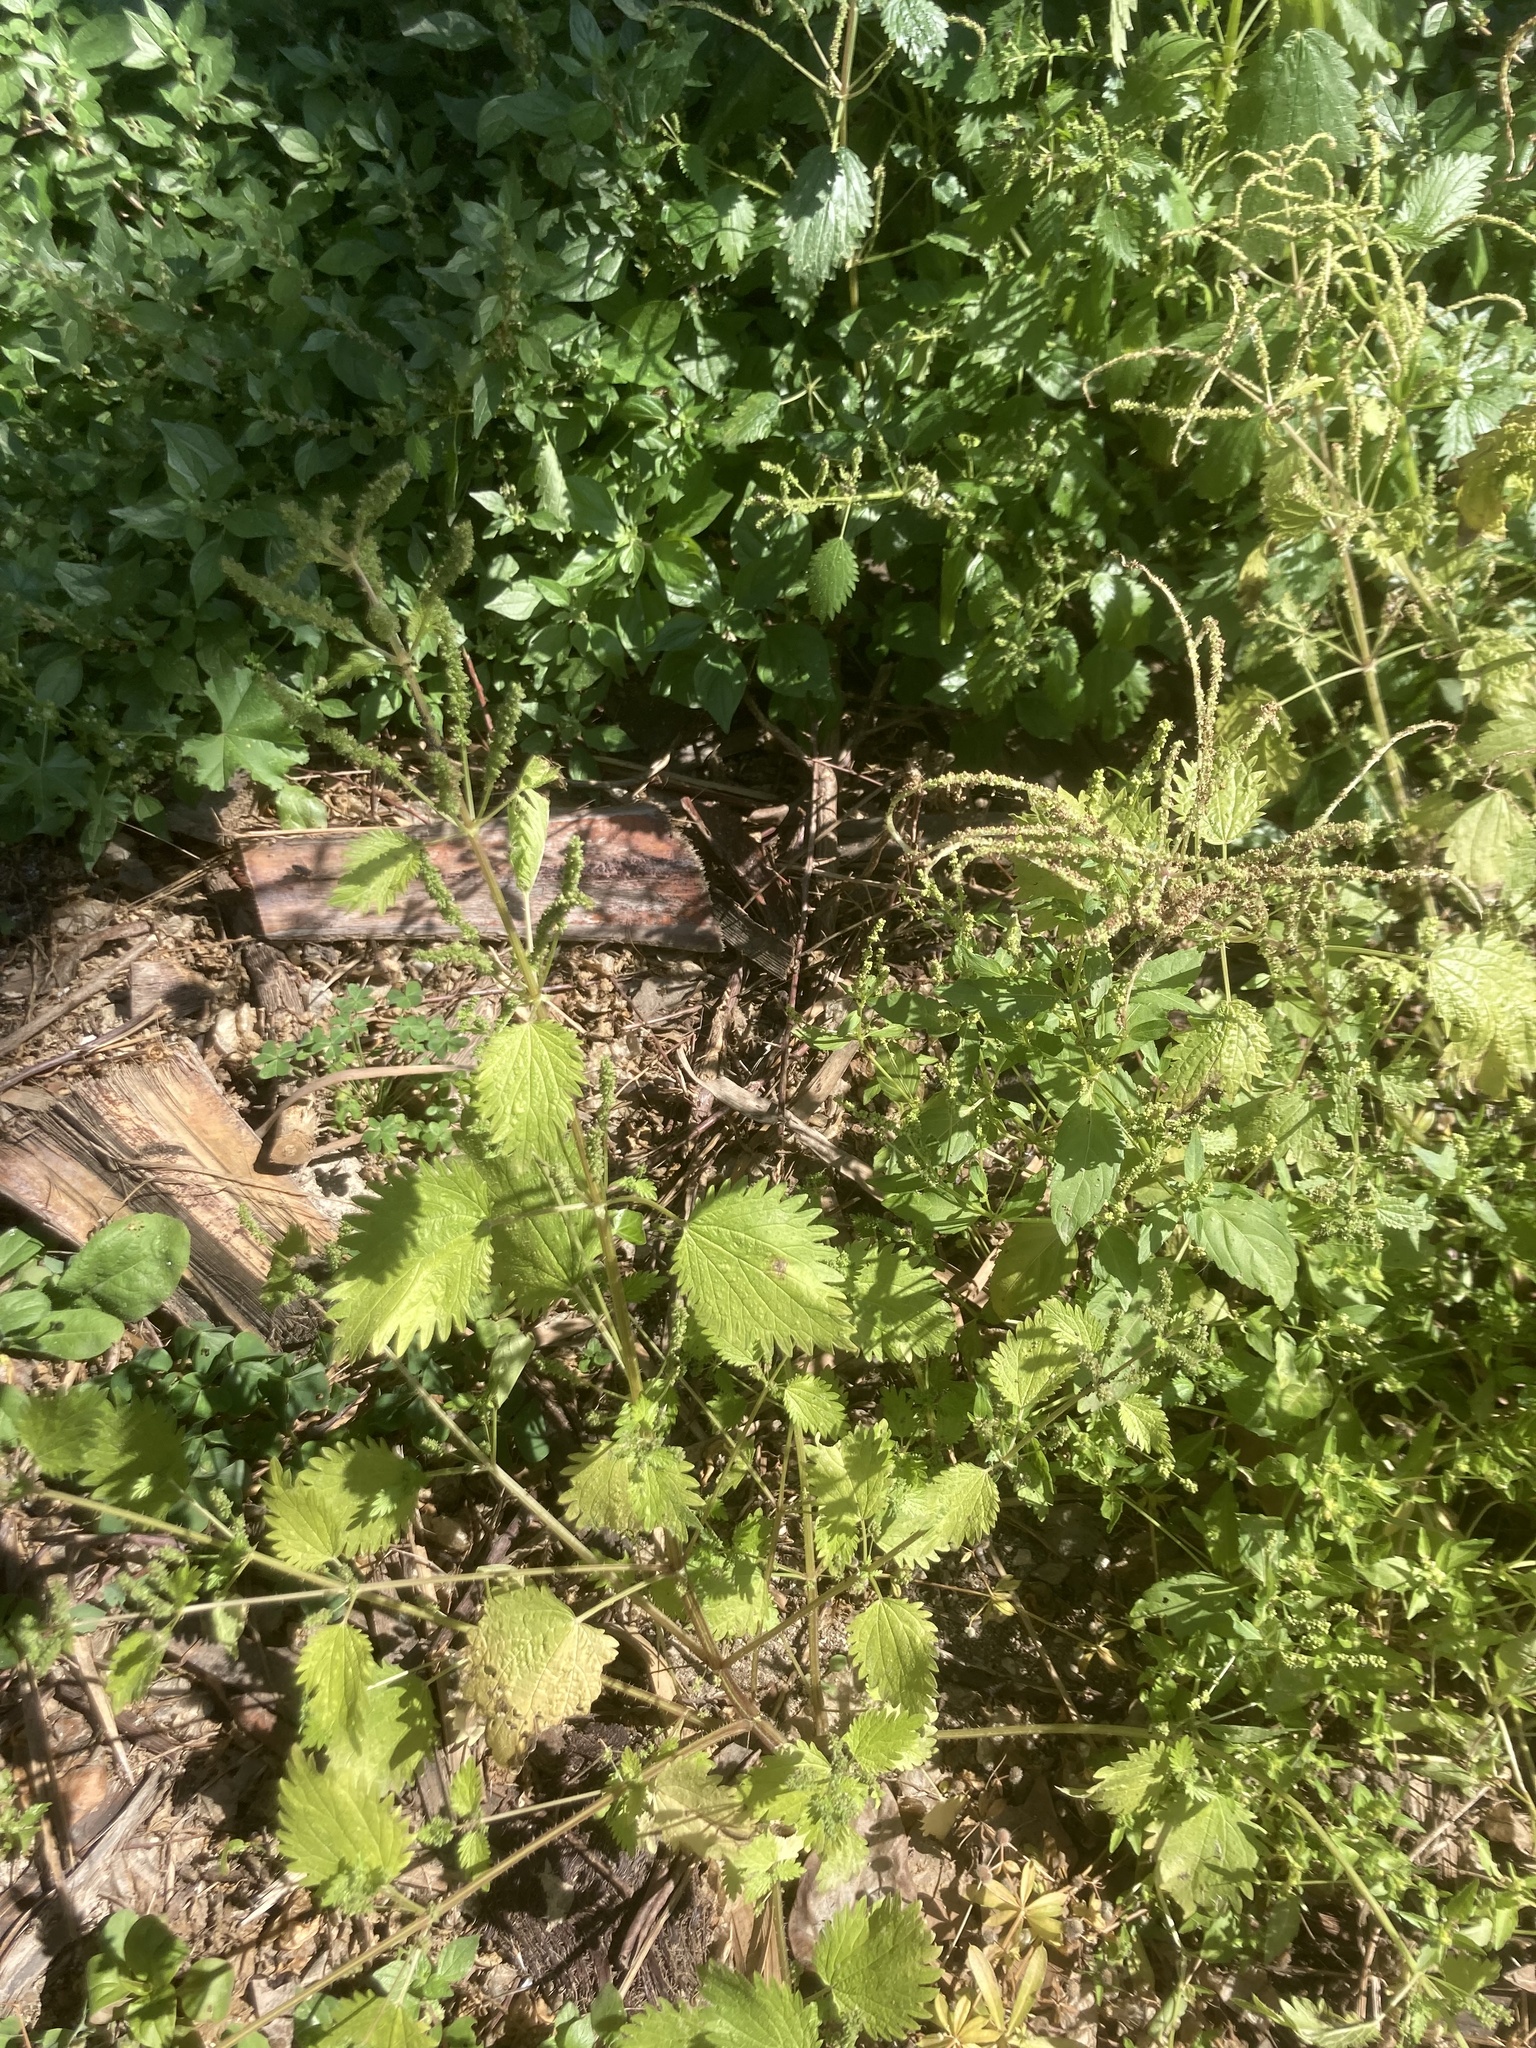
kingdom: Plantae
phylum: Tracheophyta
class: Magnoliopsida
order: Rosales
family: Urticaceae
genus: Urtica
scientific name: Urtica membranacea
